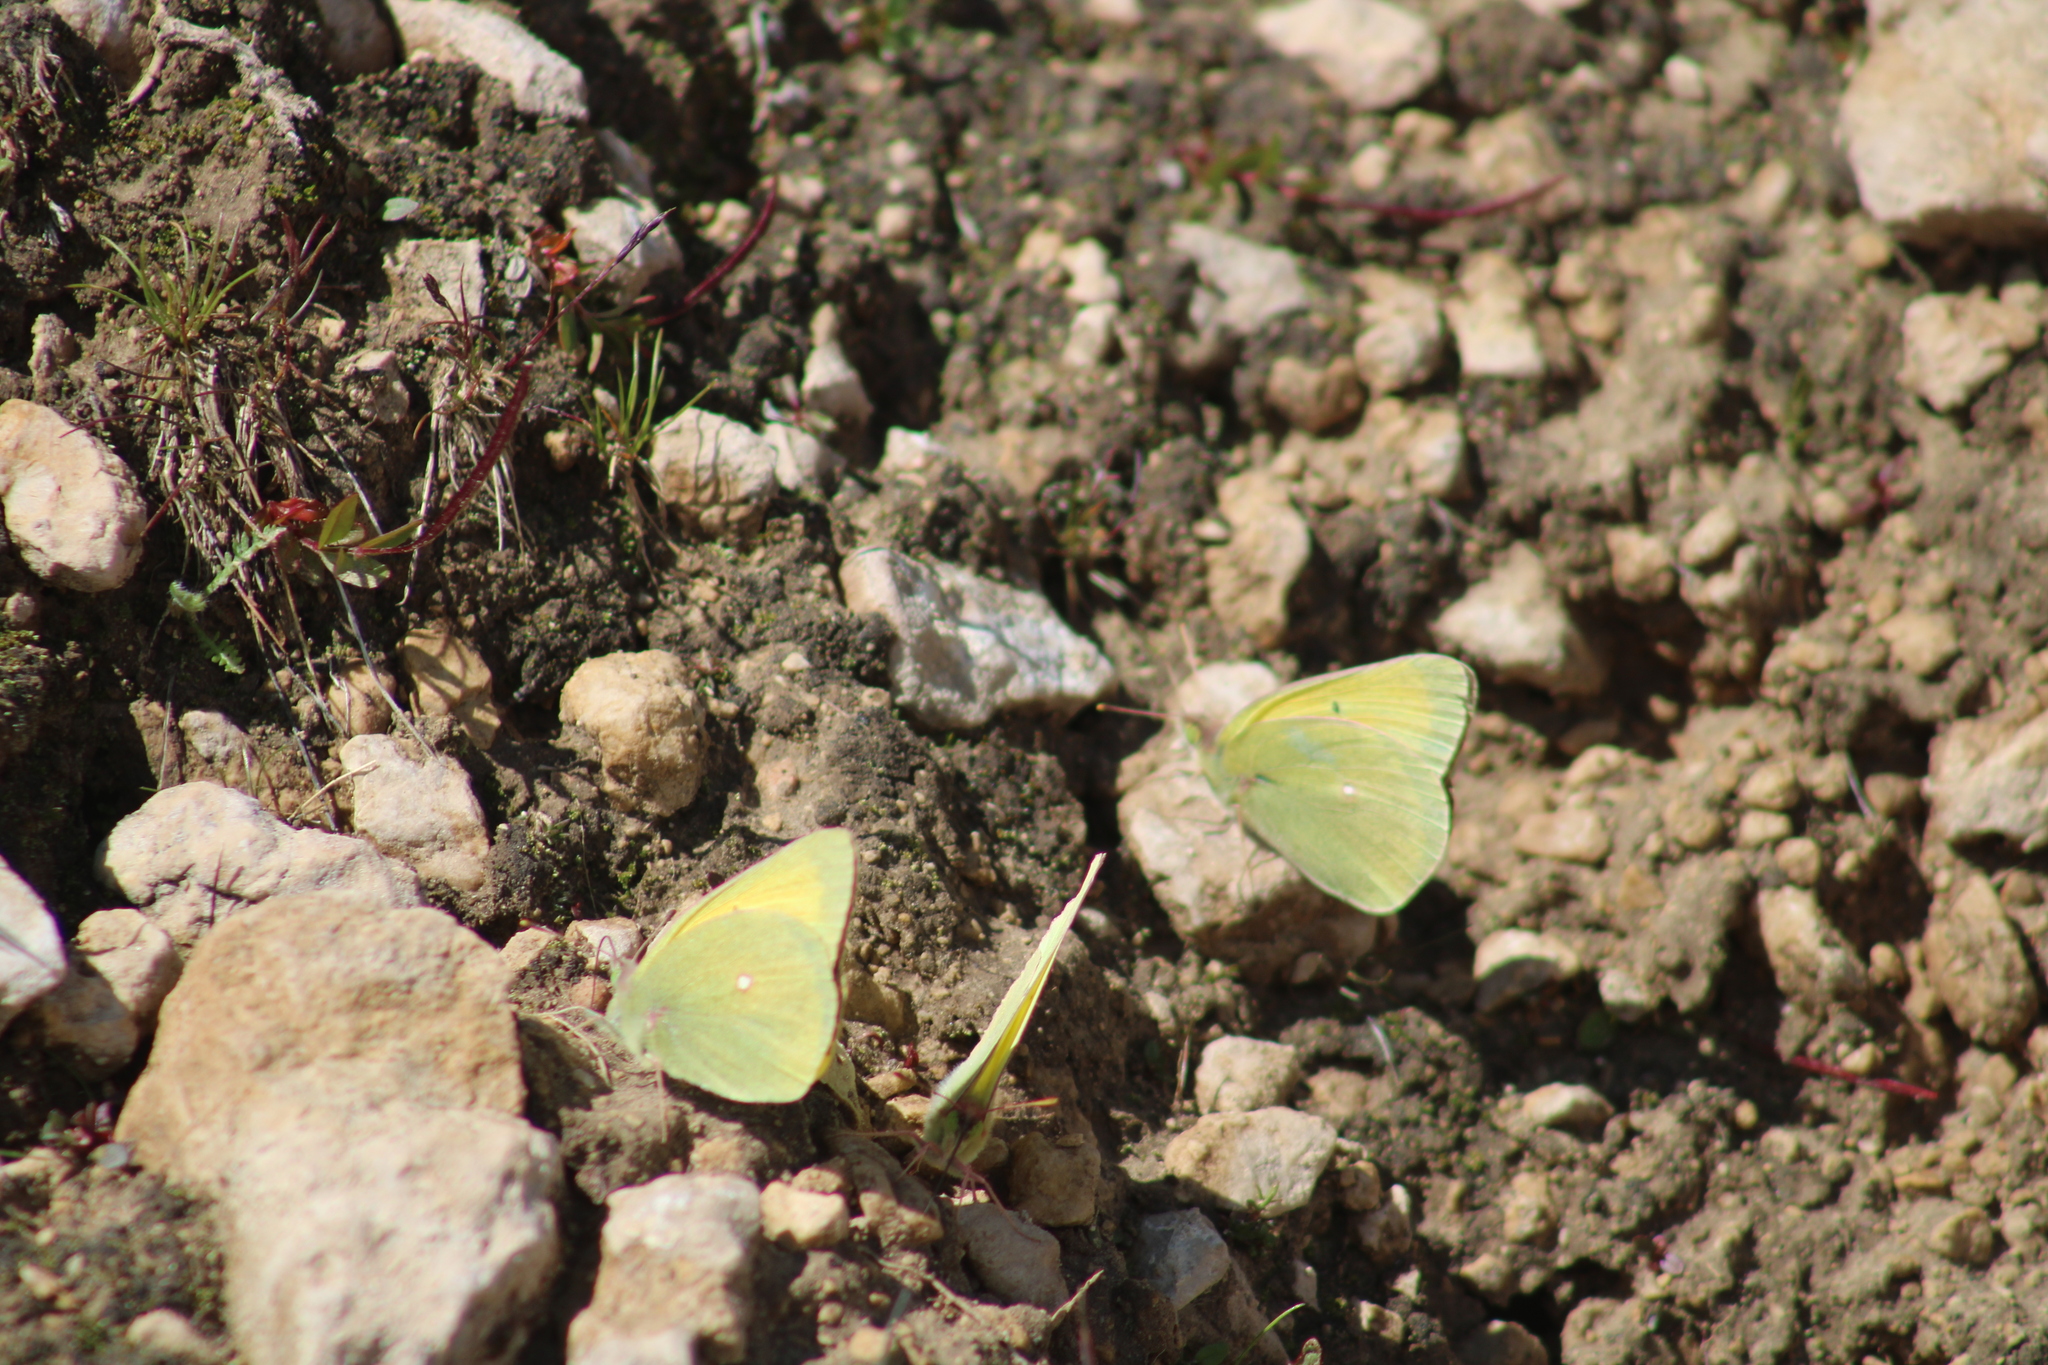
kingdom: Animalia
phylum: Arthropoda
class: Insecta
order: Lepidoptera
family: Pieridae
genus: Colias
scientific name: Colias christina
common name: Christina sulphur
